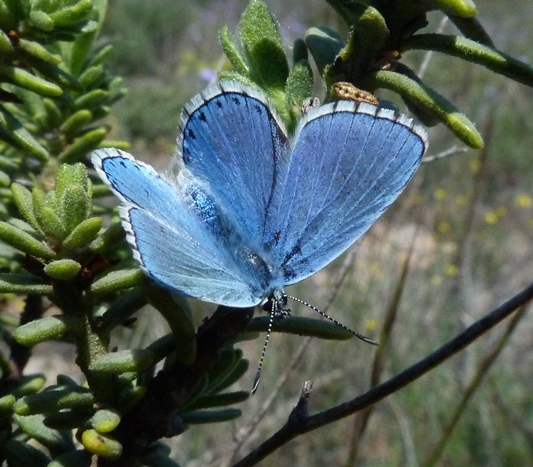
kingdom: Animalia
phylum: Arthropoda
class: Insecta
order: Lepidoptera
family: Lycaenidae
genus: Lysandra
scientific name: Lysandra bellargus
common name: Adonis blue
